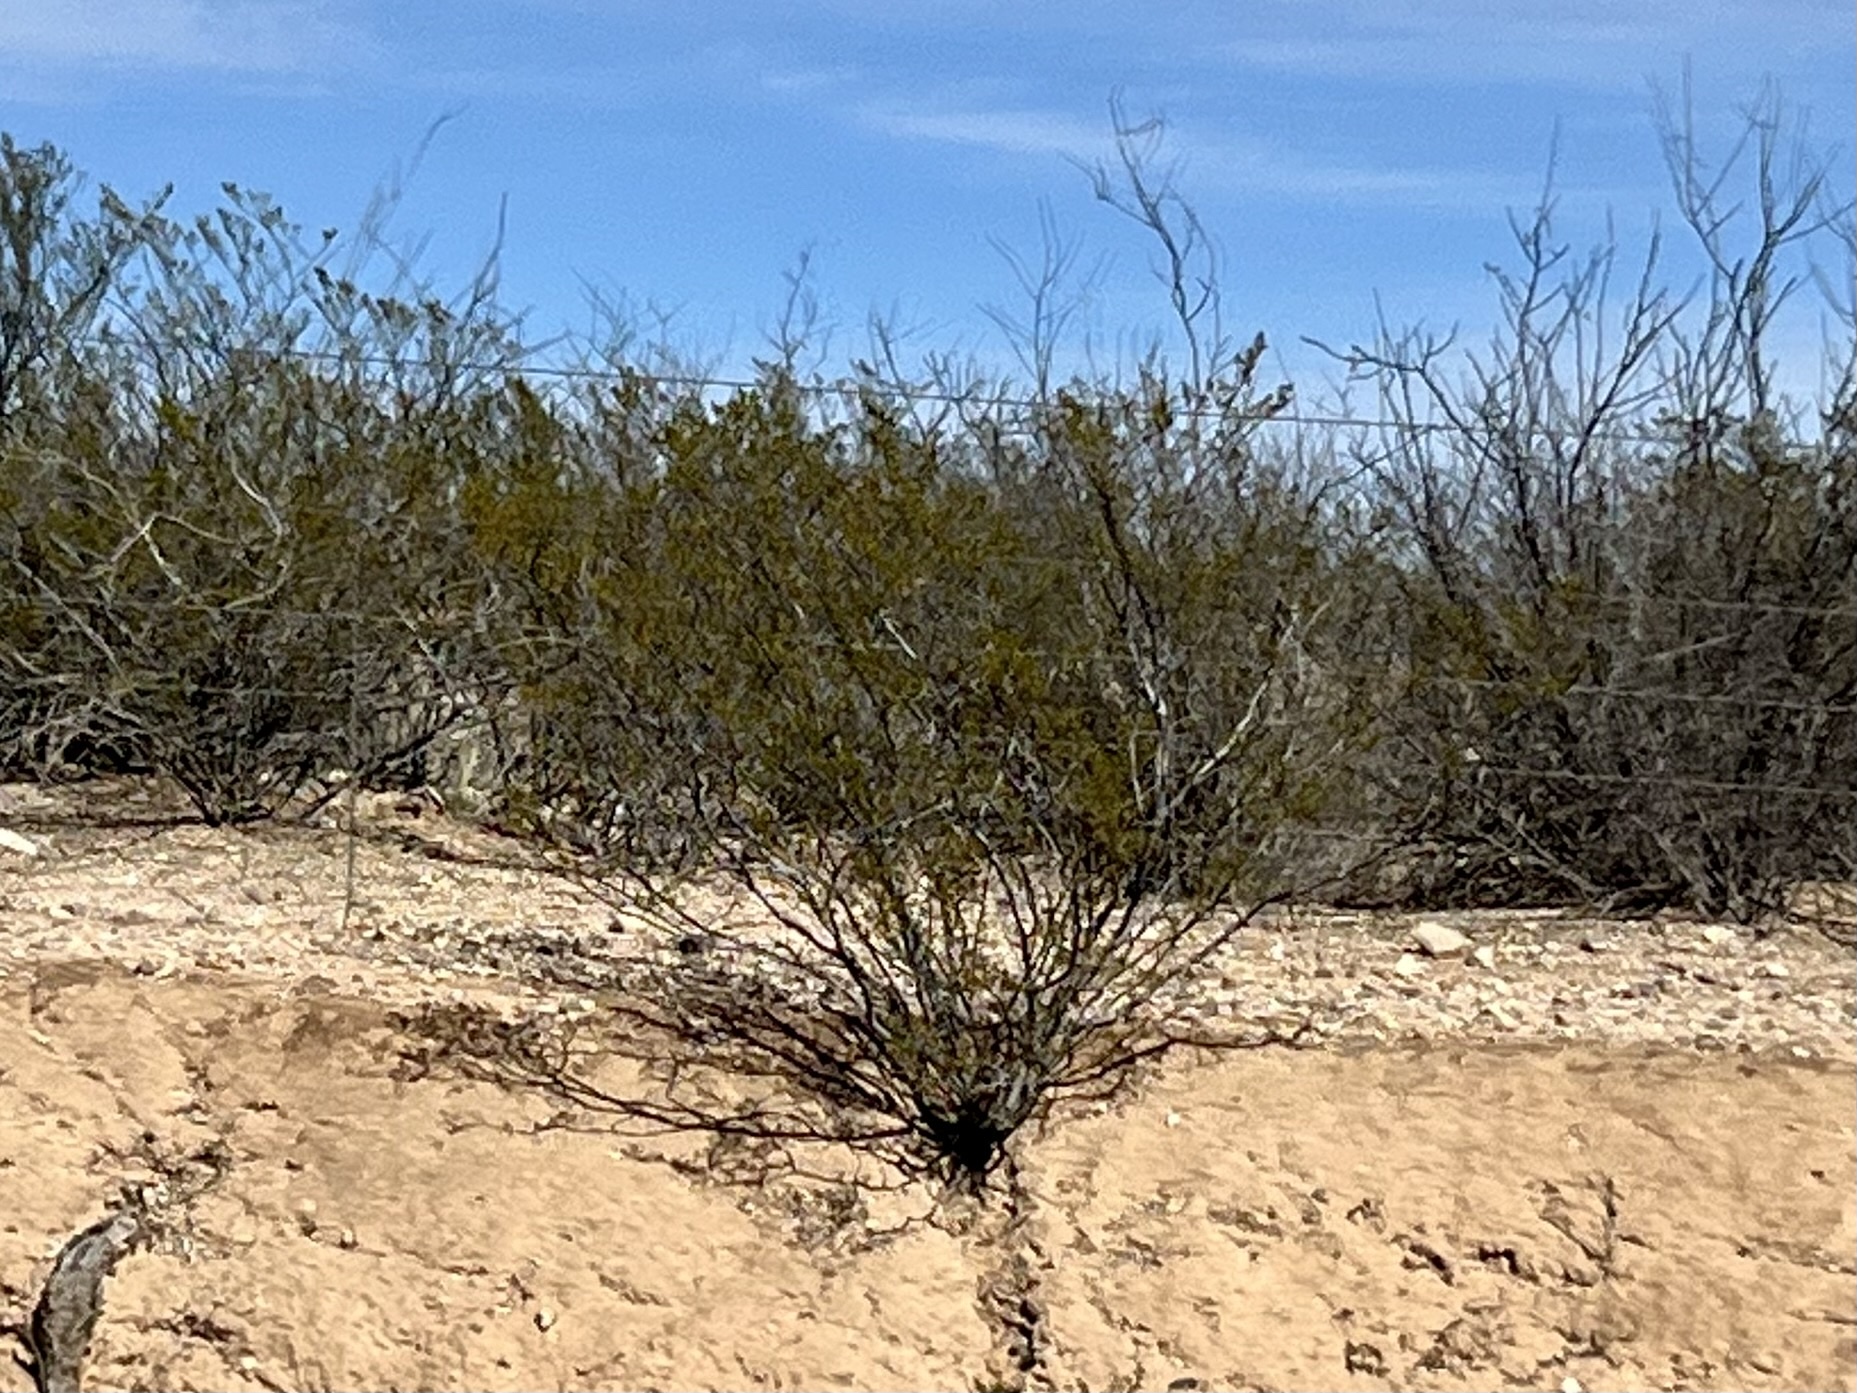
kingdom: Plantae
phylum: Tracheophyta
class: Magnoliopsida
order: Zygophyllales
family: Zygophyllaceae
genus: Larrea
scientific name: Larrea tridentata
